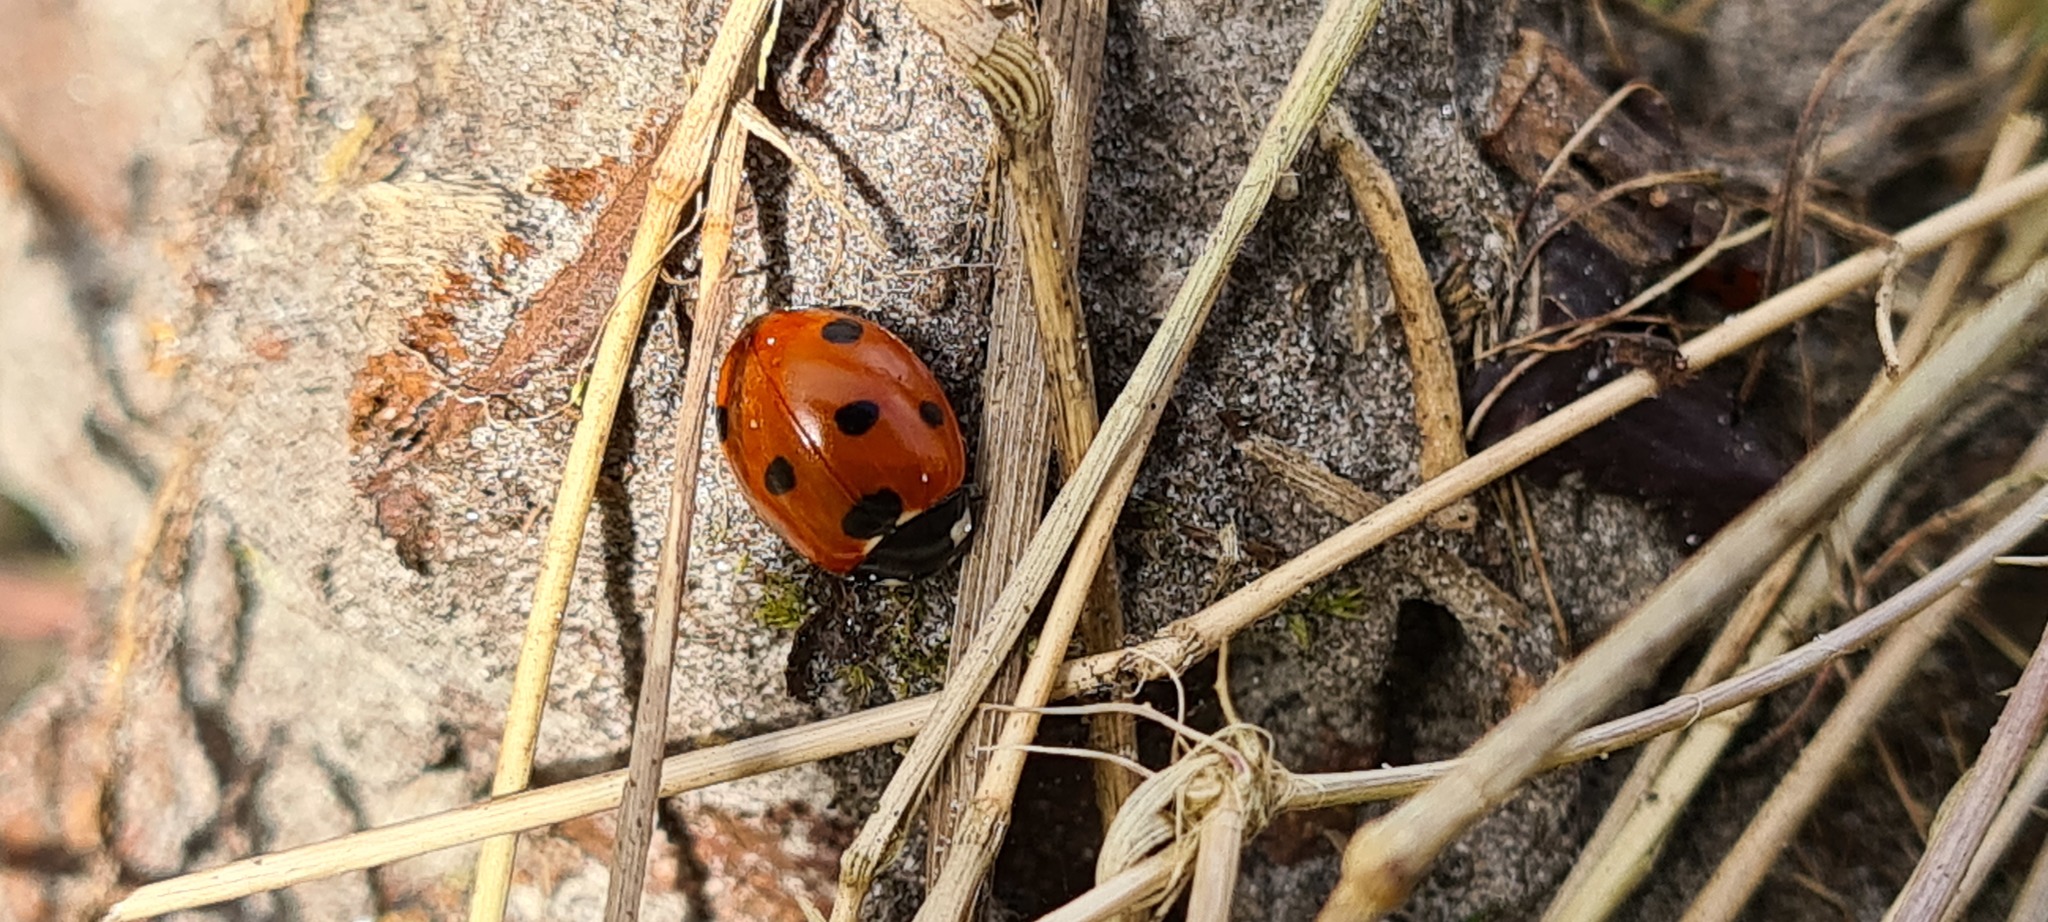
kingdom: Animalia
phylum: Arthropoda
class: Insecta
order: Coleoptera
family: Coccinellidae
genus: Coccinella
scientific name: Coccinella septempunctata
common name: Sevenspotted lady beetle
